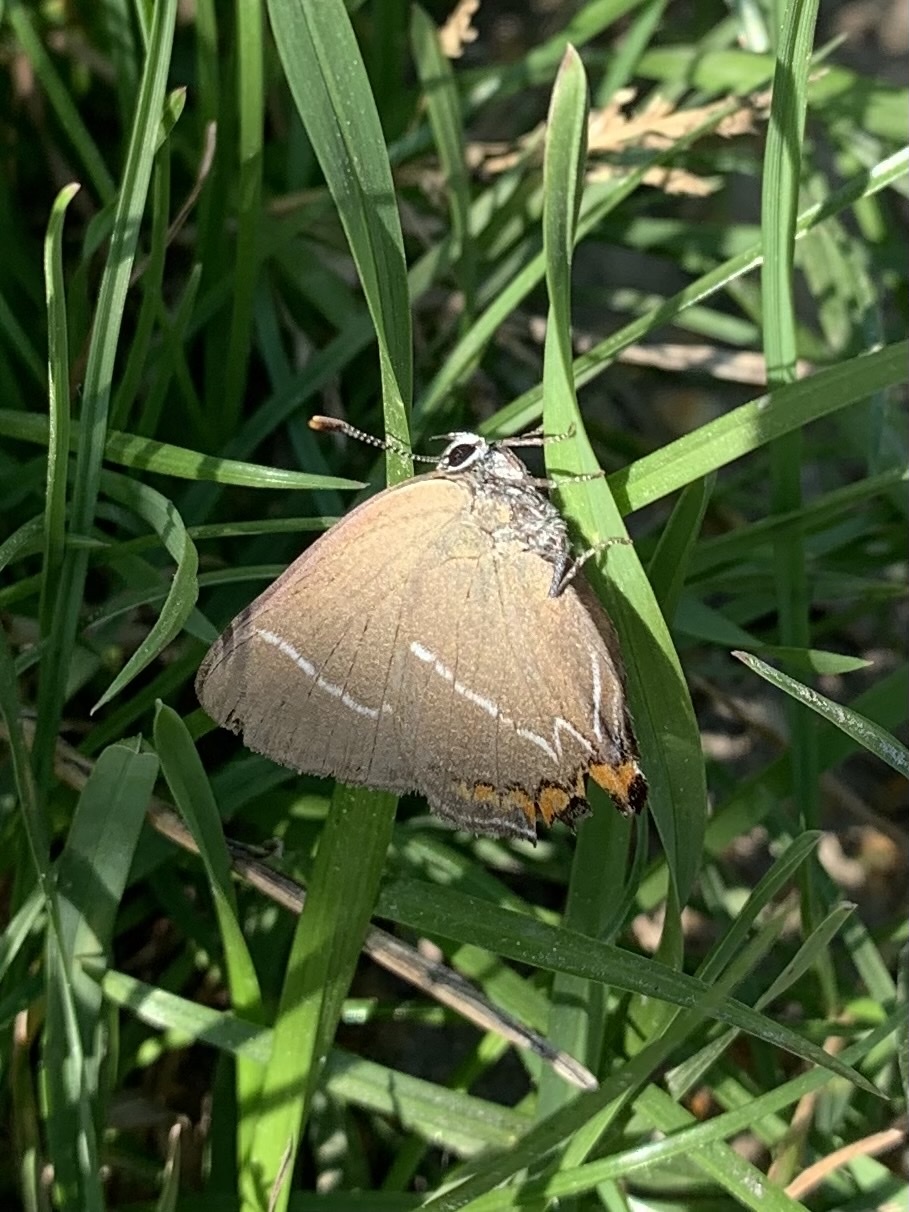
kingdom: Animalia
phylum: Arthropoda
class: Insecta
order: Lepidoptera
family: Lycaenidae
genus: Satyrium
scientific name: Satyrium w-album
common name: White-letter hairstreak
